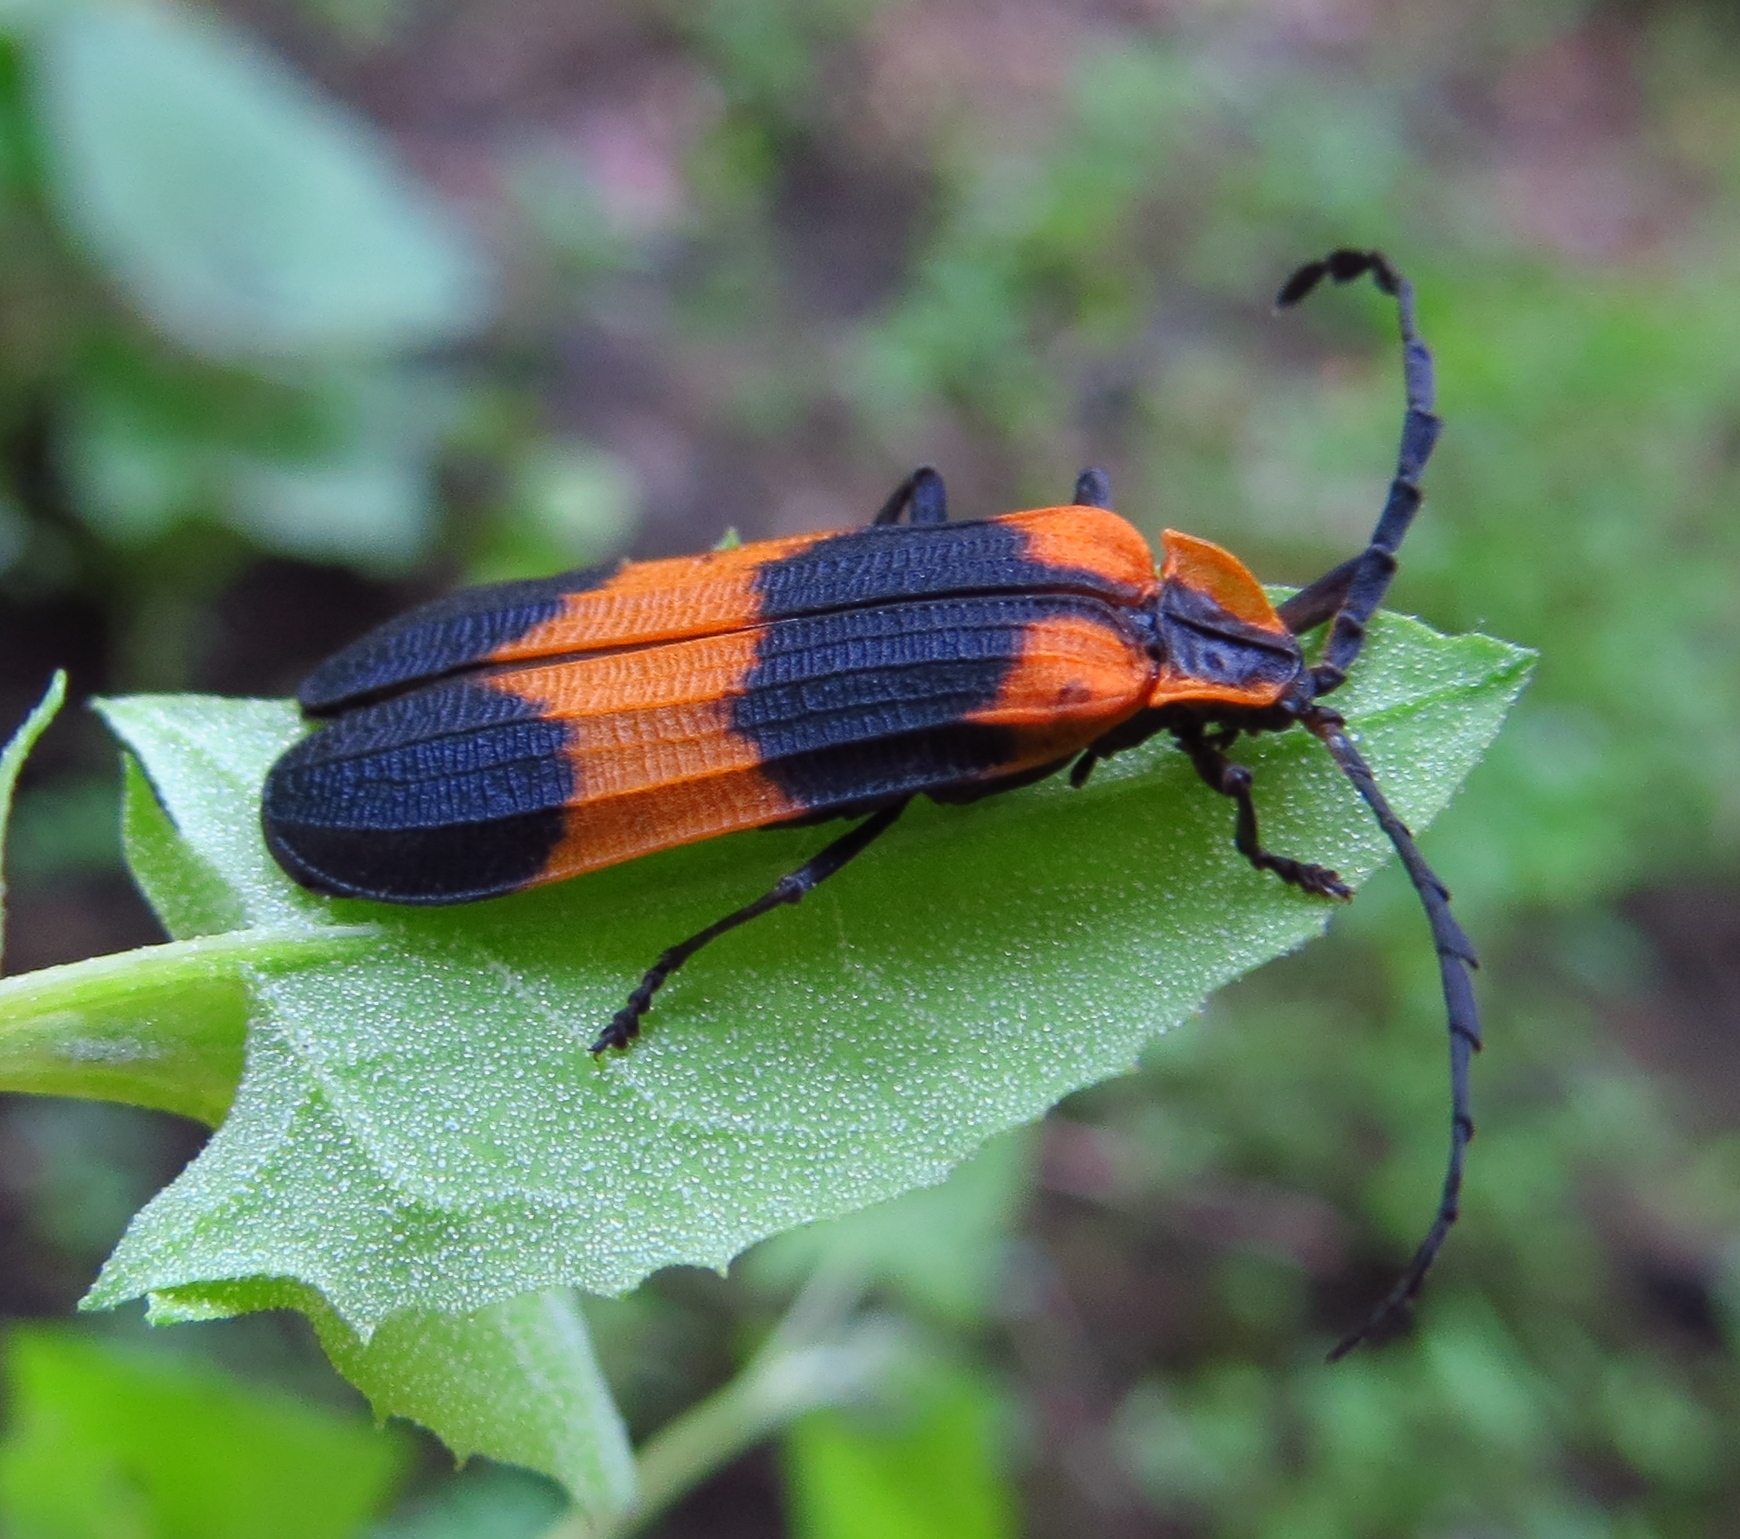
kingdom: Animalia
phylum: Arthropoda
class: Insecta
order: Coleoptera
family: Lycidae
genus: Calopteron
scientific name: Calopteron reticulatum
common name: Banded net-winged beetle
